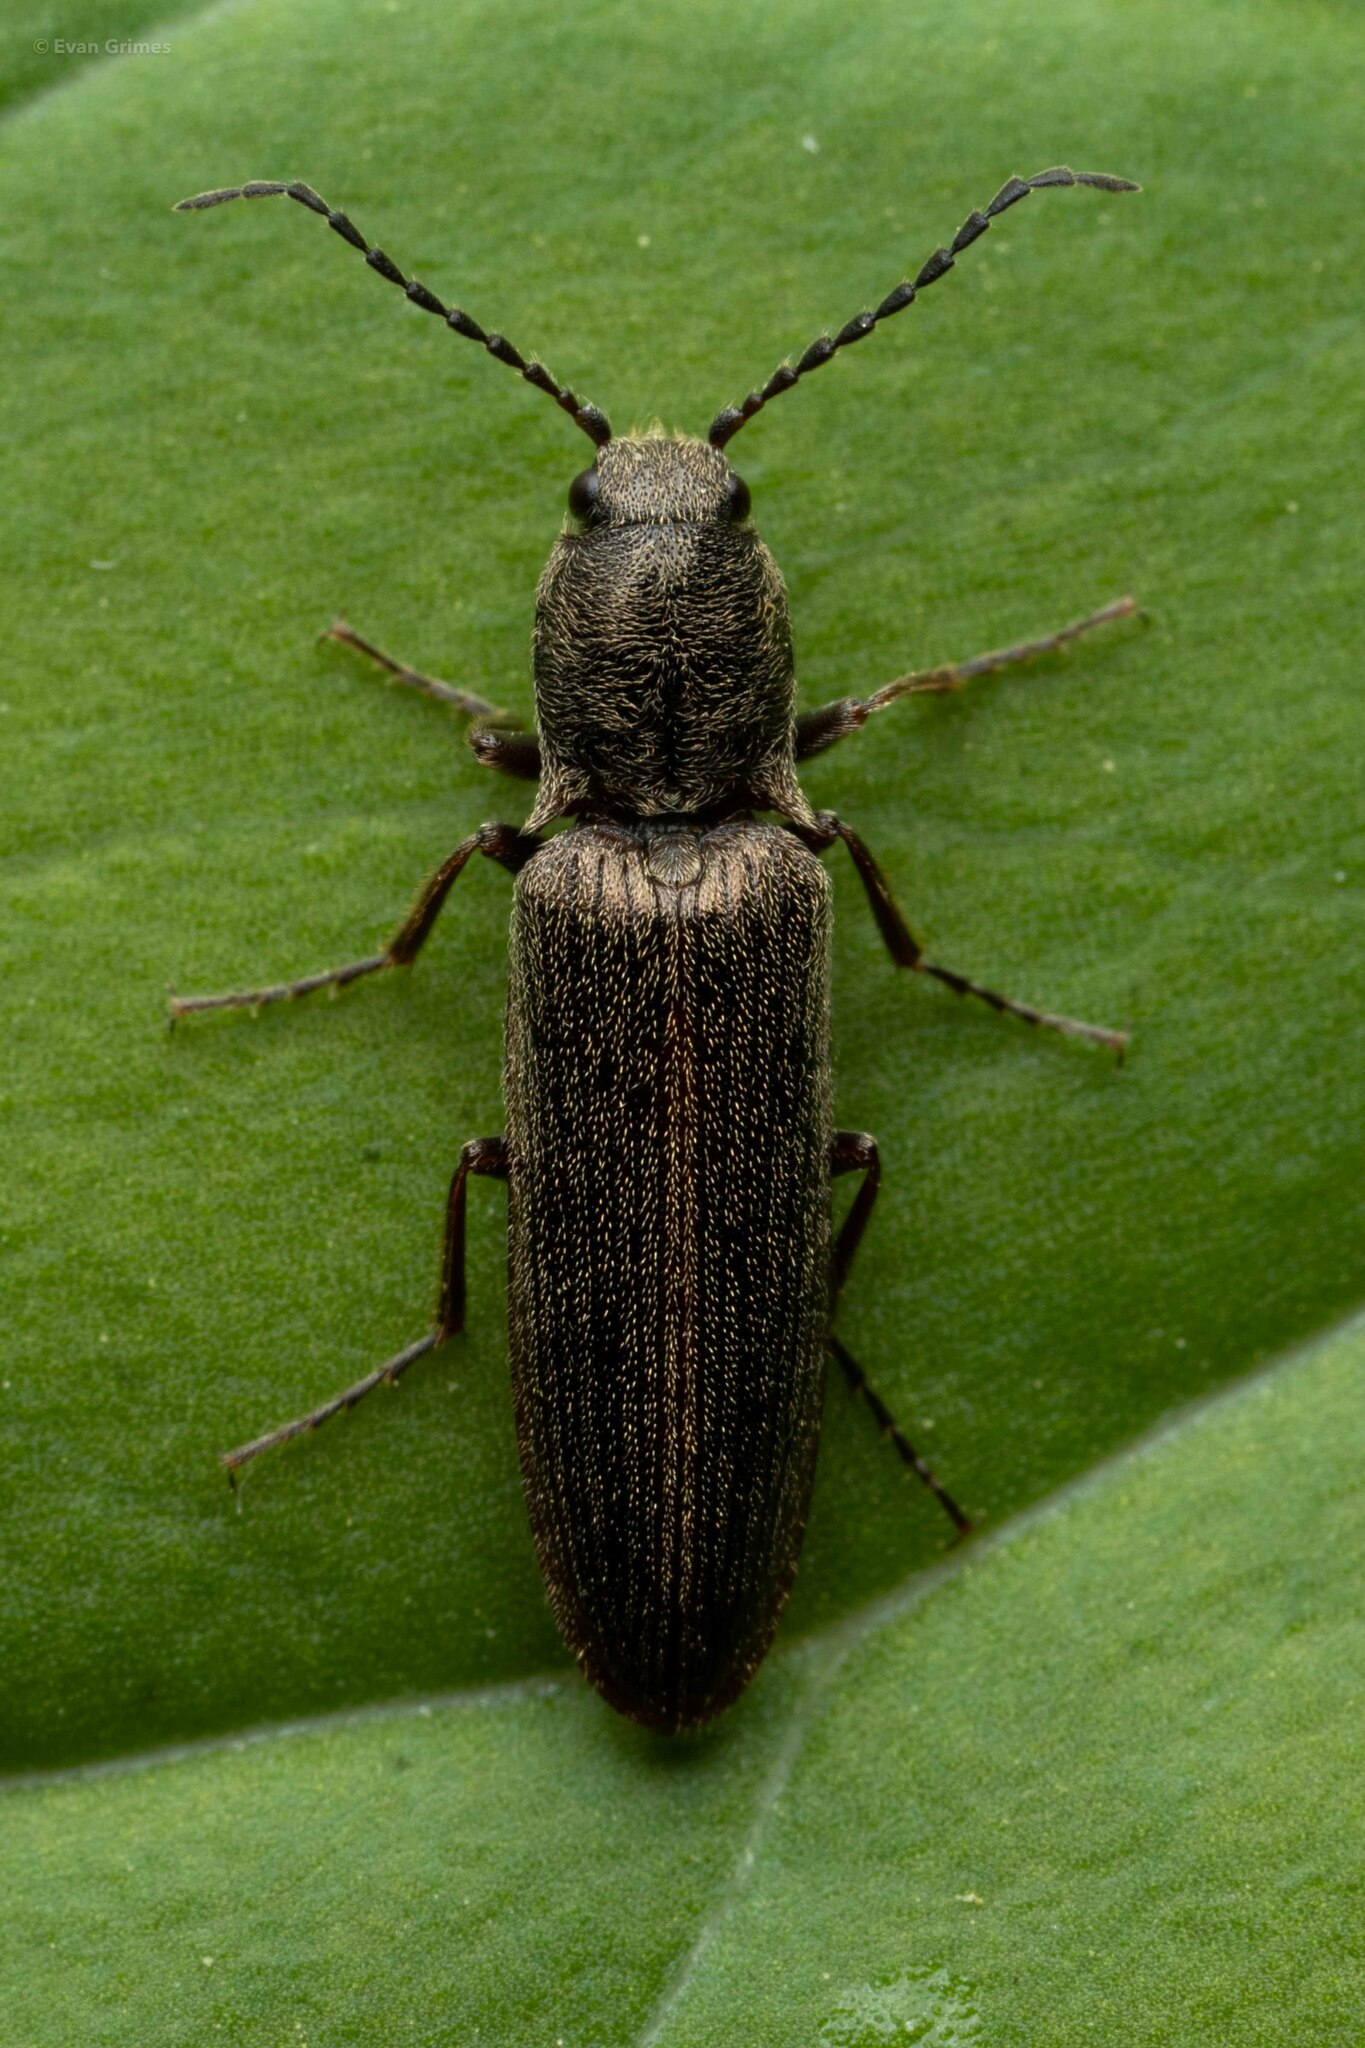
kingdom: Animalia
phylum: Arthropoda
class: Insecta
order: Coleoptera
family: Elateridae
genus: Sylvanelater
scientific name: Sylvanelater cylindriformis
